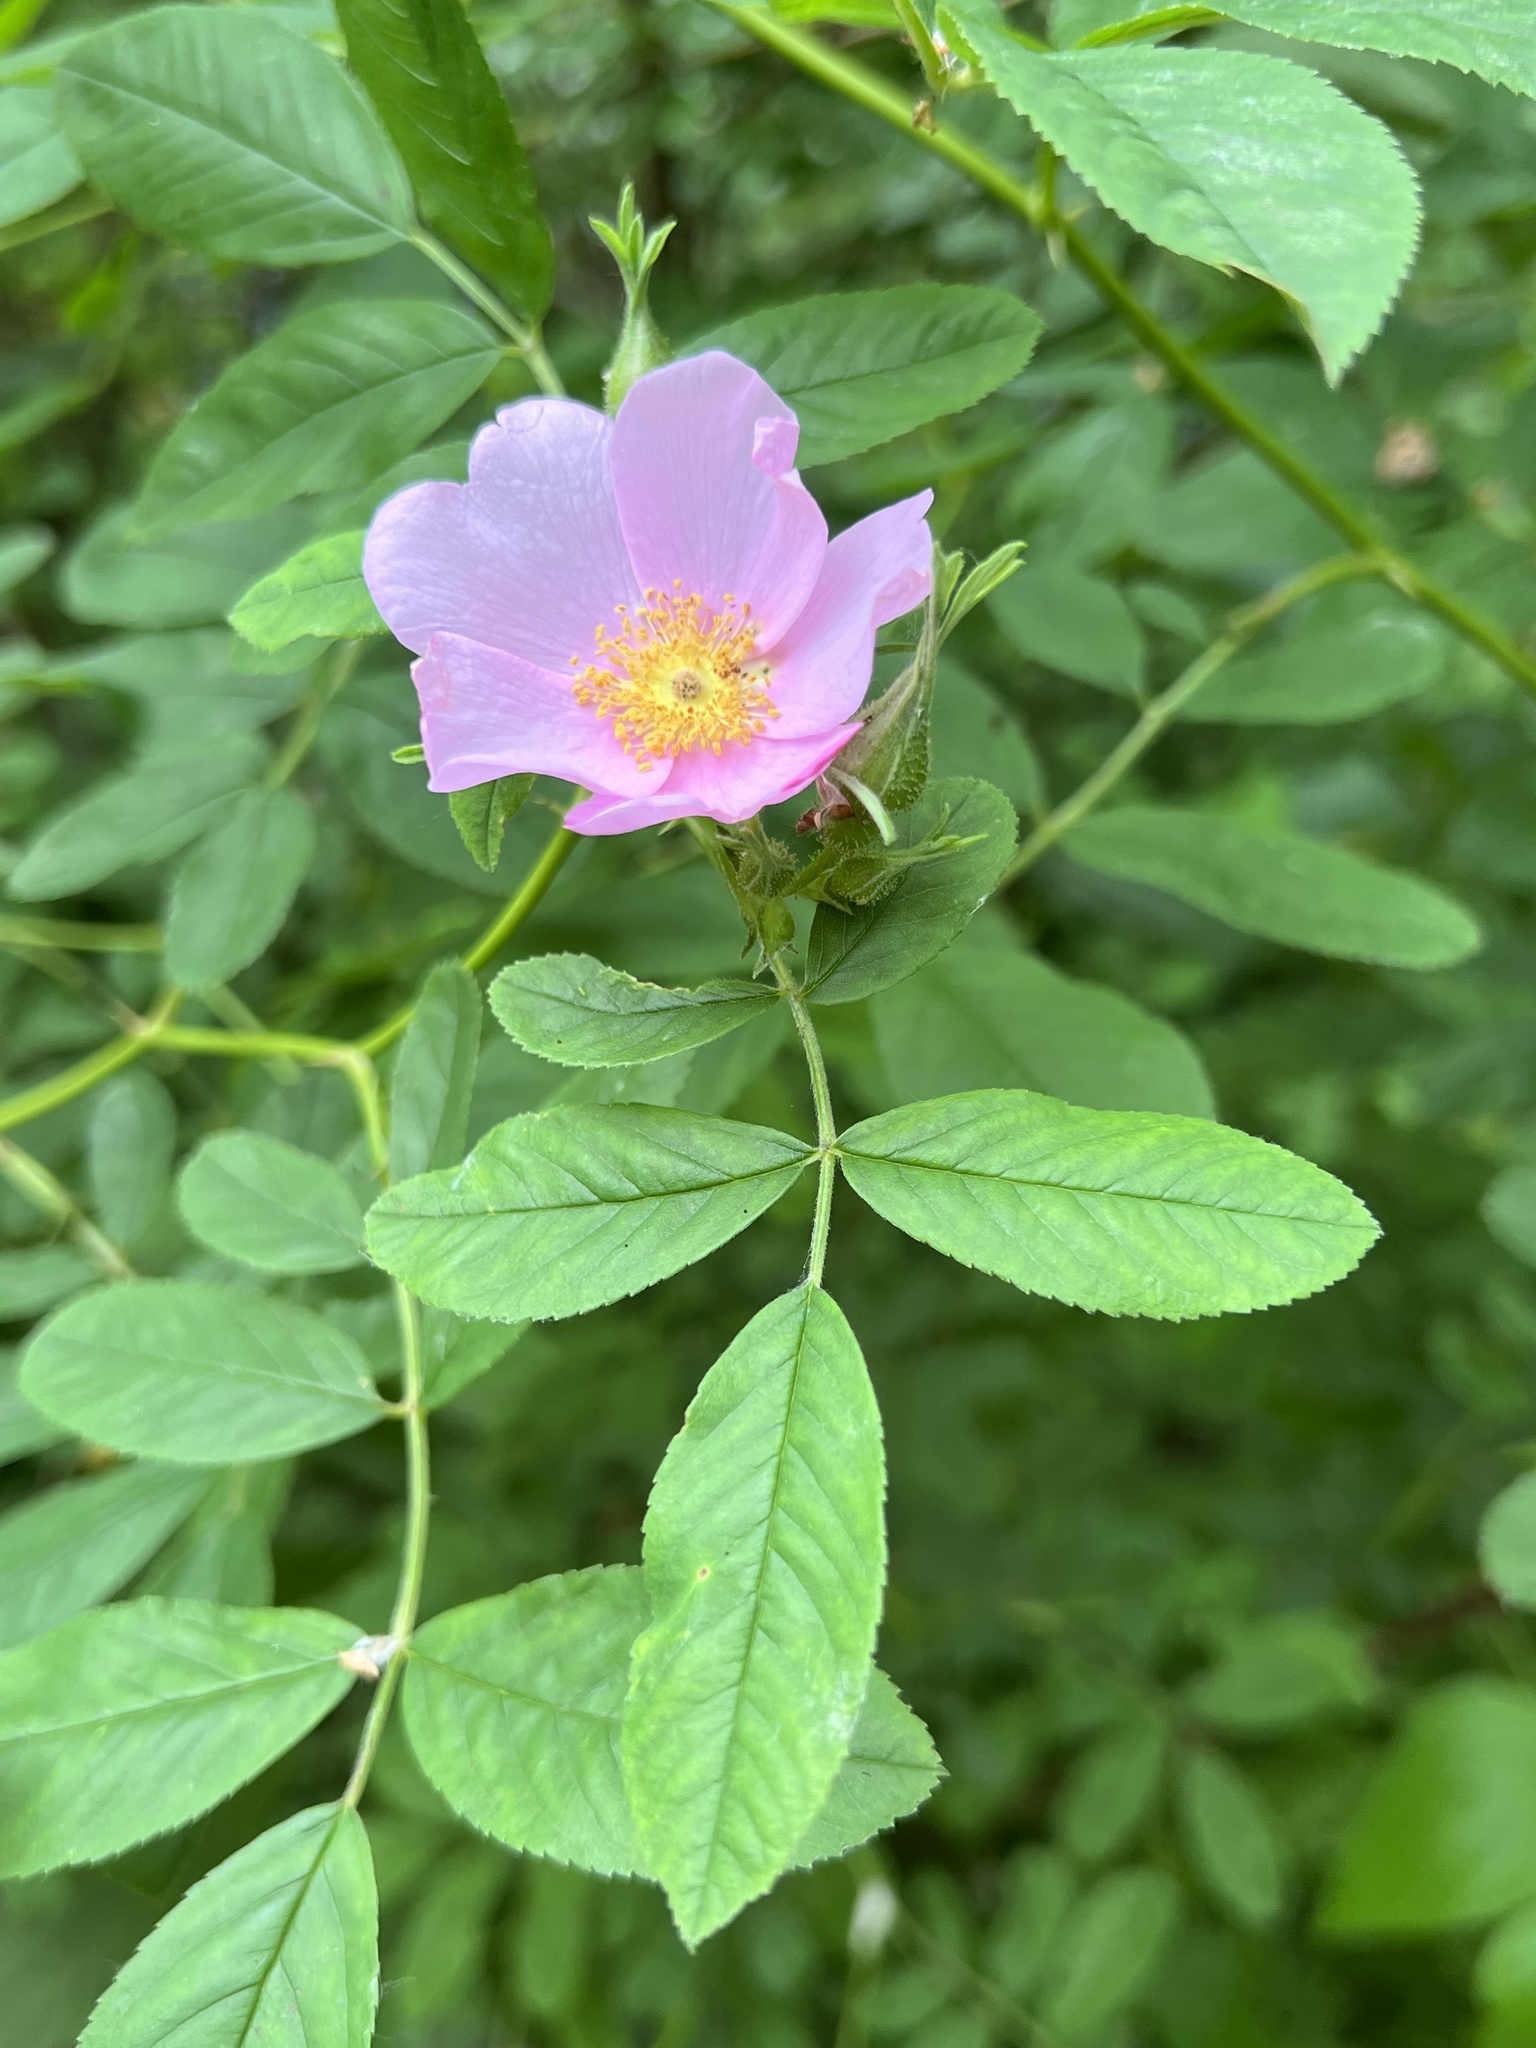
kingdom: Plantae
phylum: Tracheophyta
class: Magnoliopsida
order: Rosales
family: Rosaceae
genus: Rosa
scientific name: Rosa palustris
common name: Swamp rose
